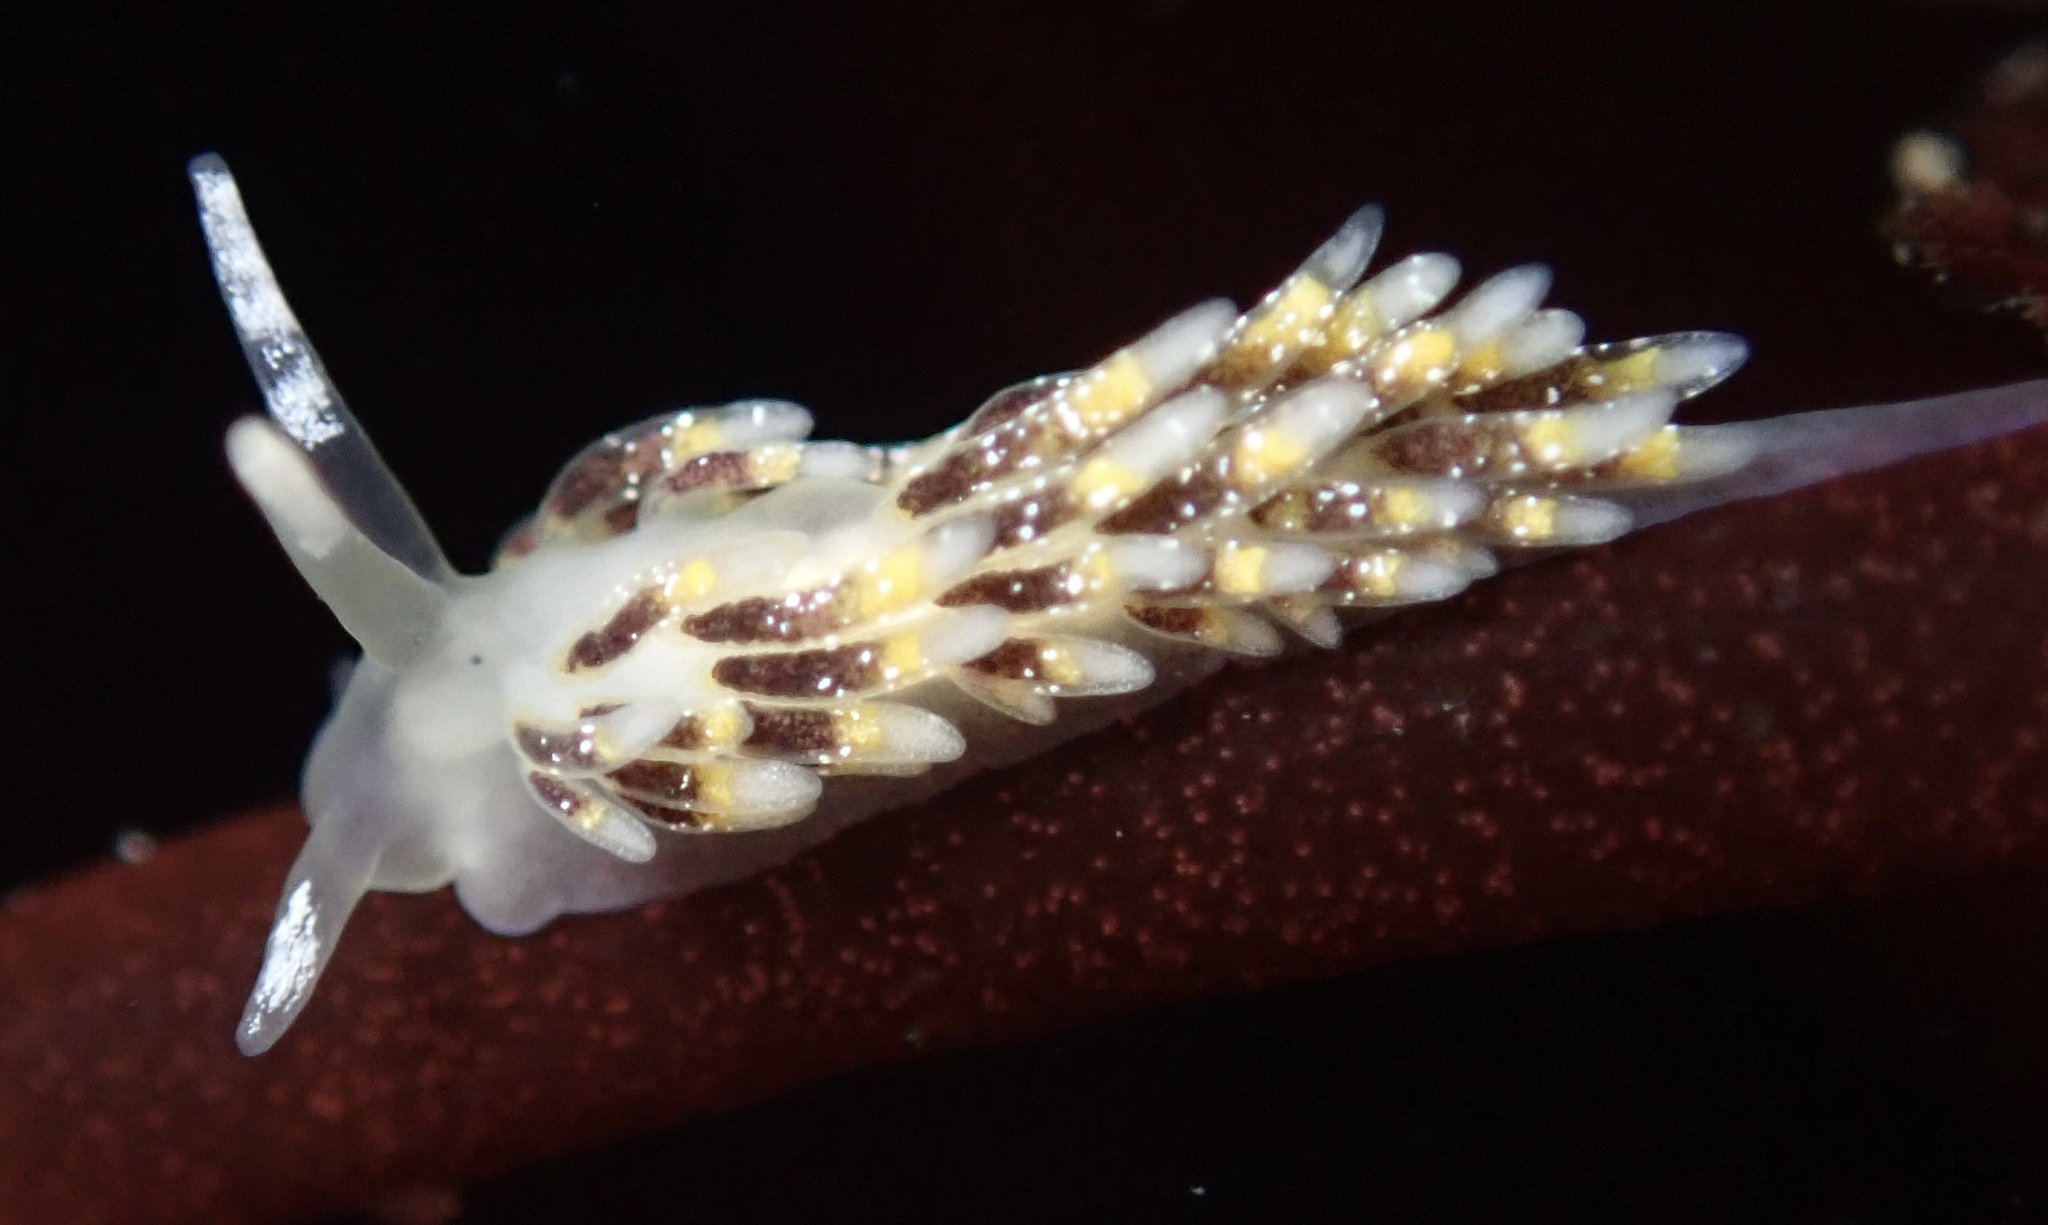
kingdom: Animalia
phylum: Mollusca
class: Gastropoda
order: Nudibranchia
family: Trinchesiidae
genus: Zelentia
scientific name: Zelentia fulgens
